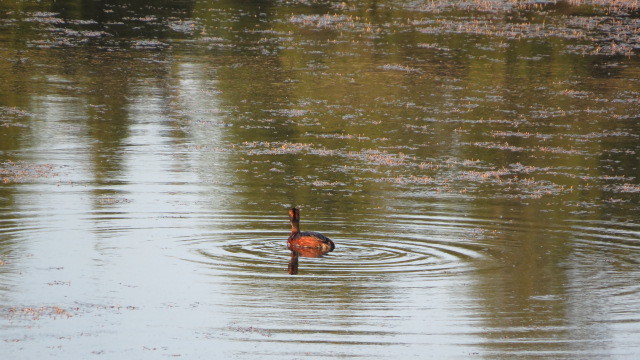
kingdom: Animalia
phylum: Chordata
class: Aves
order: Podicipediformes
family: Podicipedidae
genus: Podiceps
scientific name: Podiceps auritus
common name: Horned grebe
